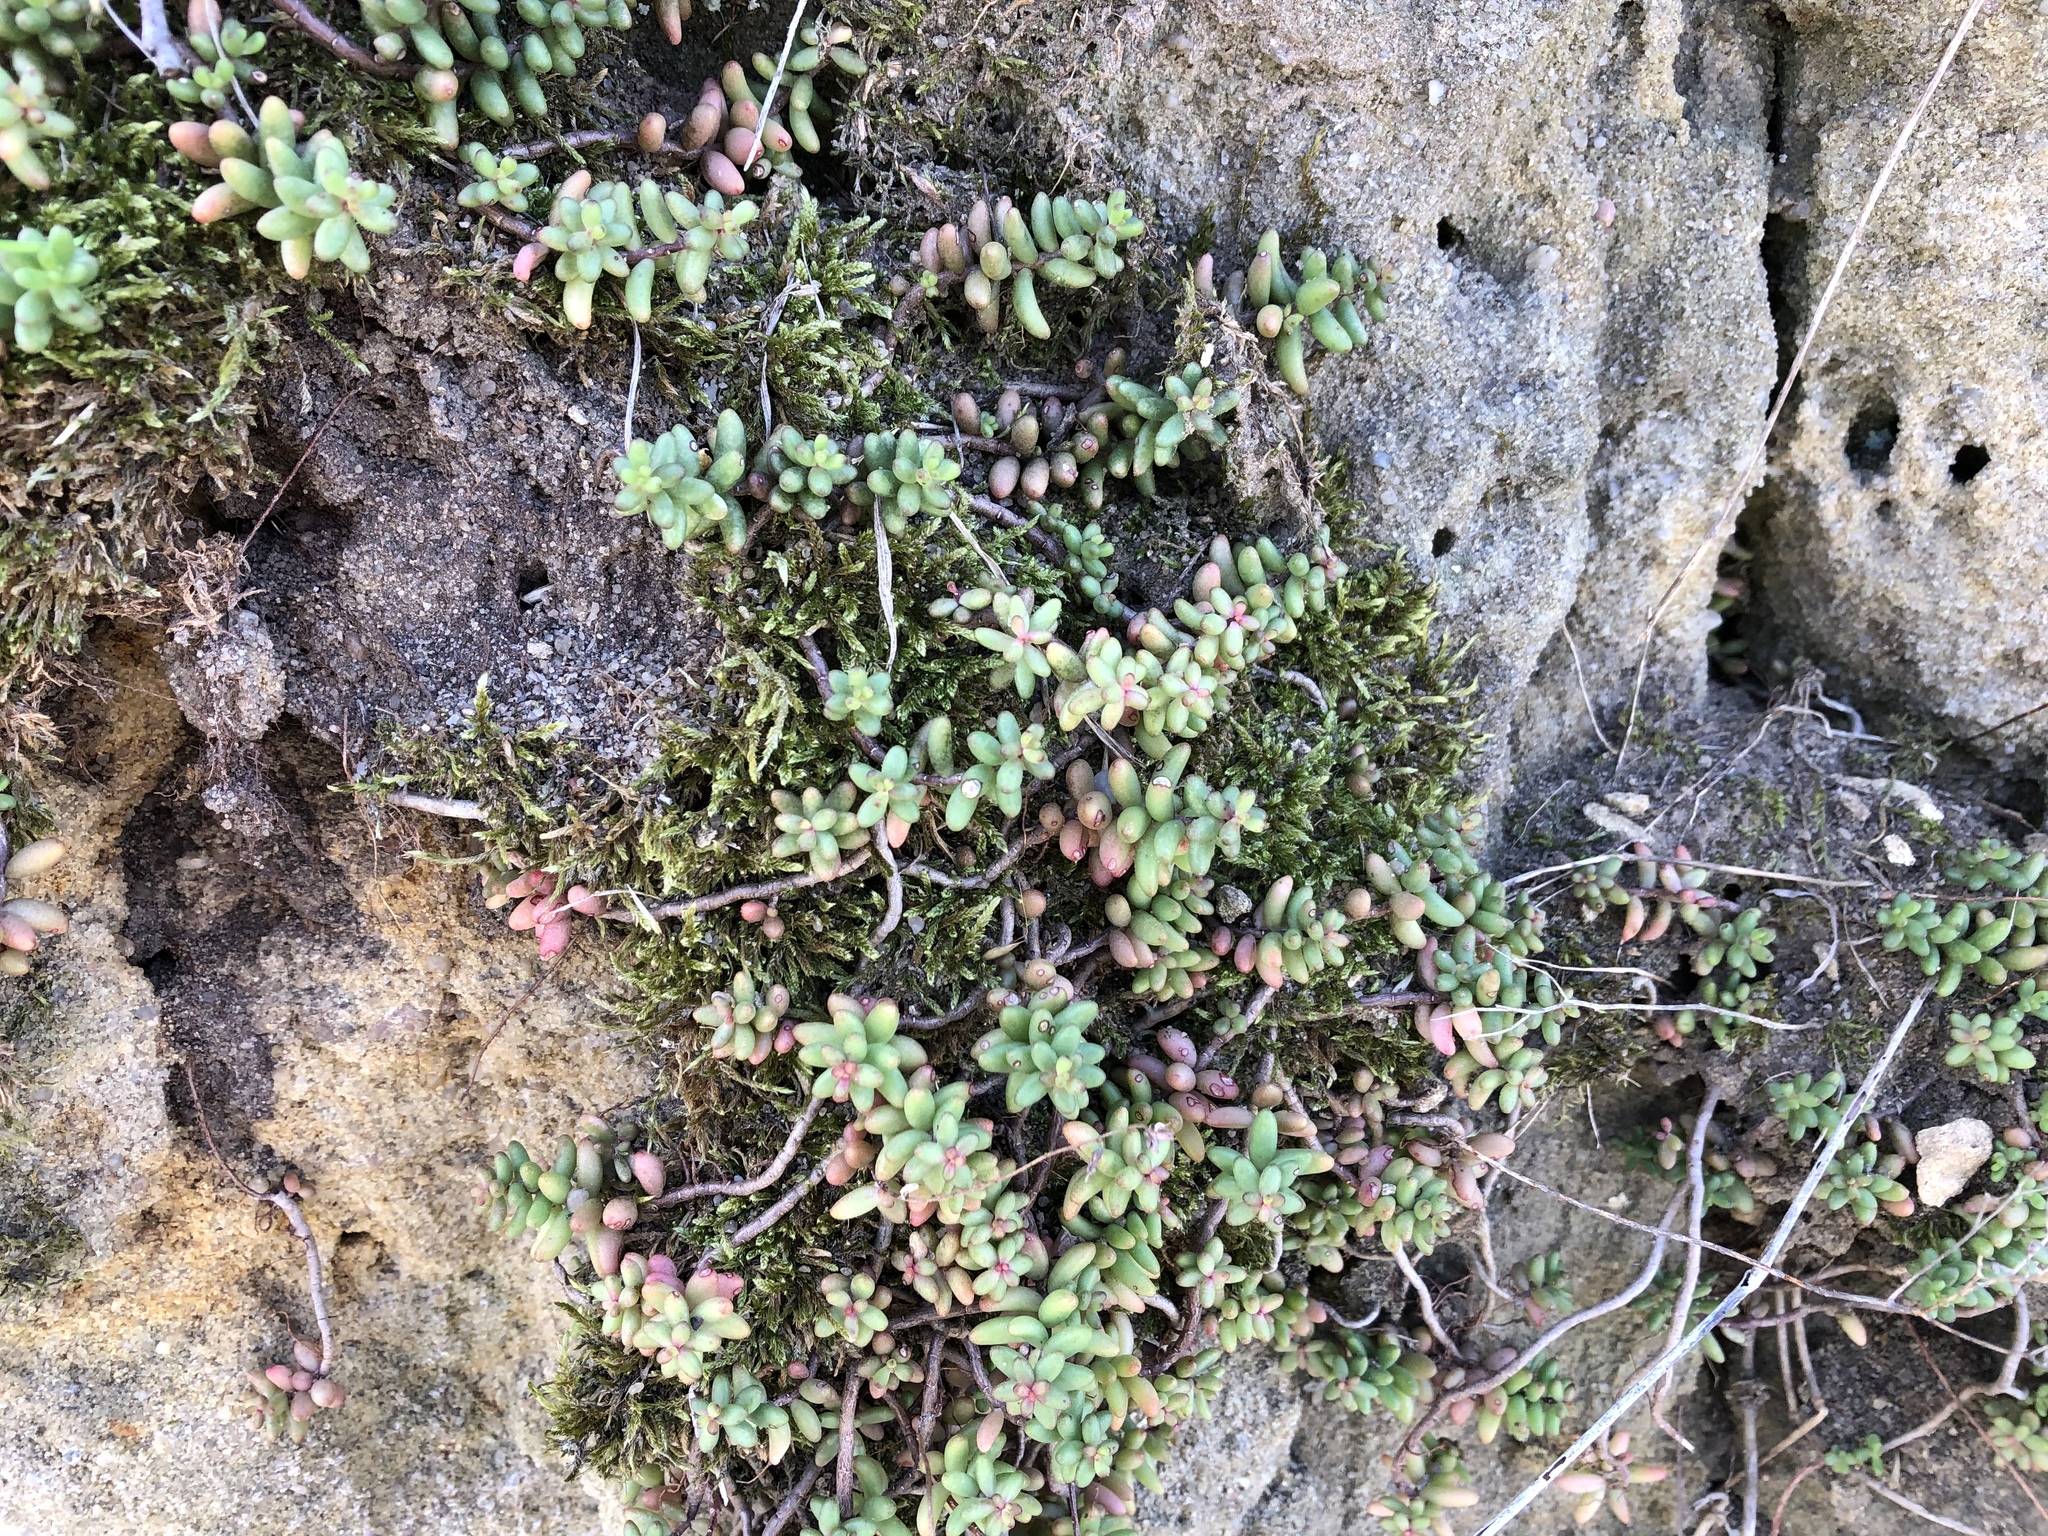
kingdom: Plantae
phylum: Tracheophyta
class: Magnoliopsida
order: Saxifragales
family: Crassulaceae
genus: Sedum
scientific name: Sedum album
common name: White stonecrop
